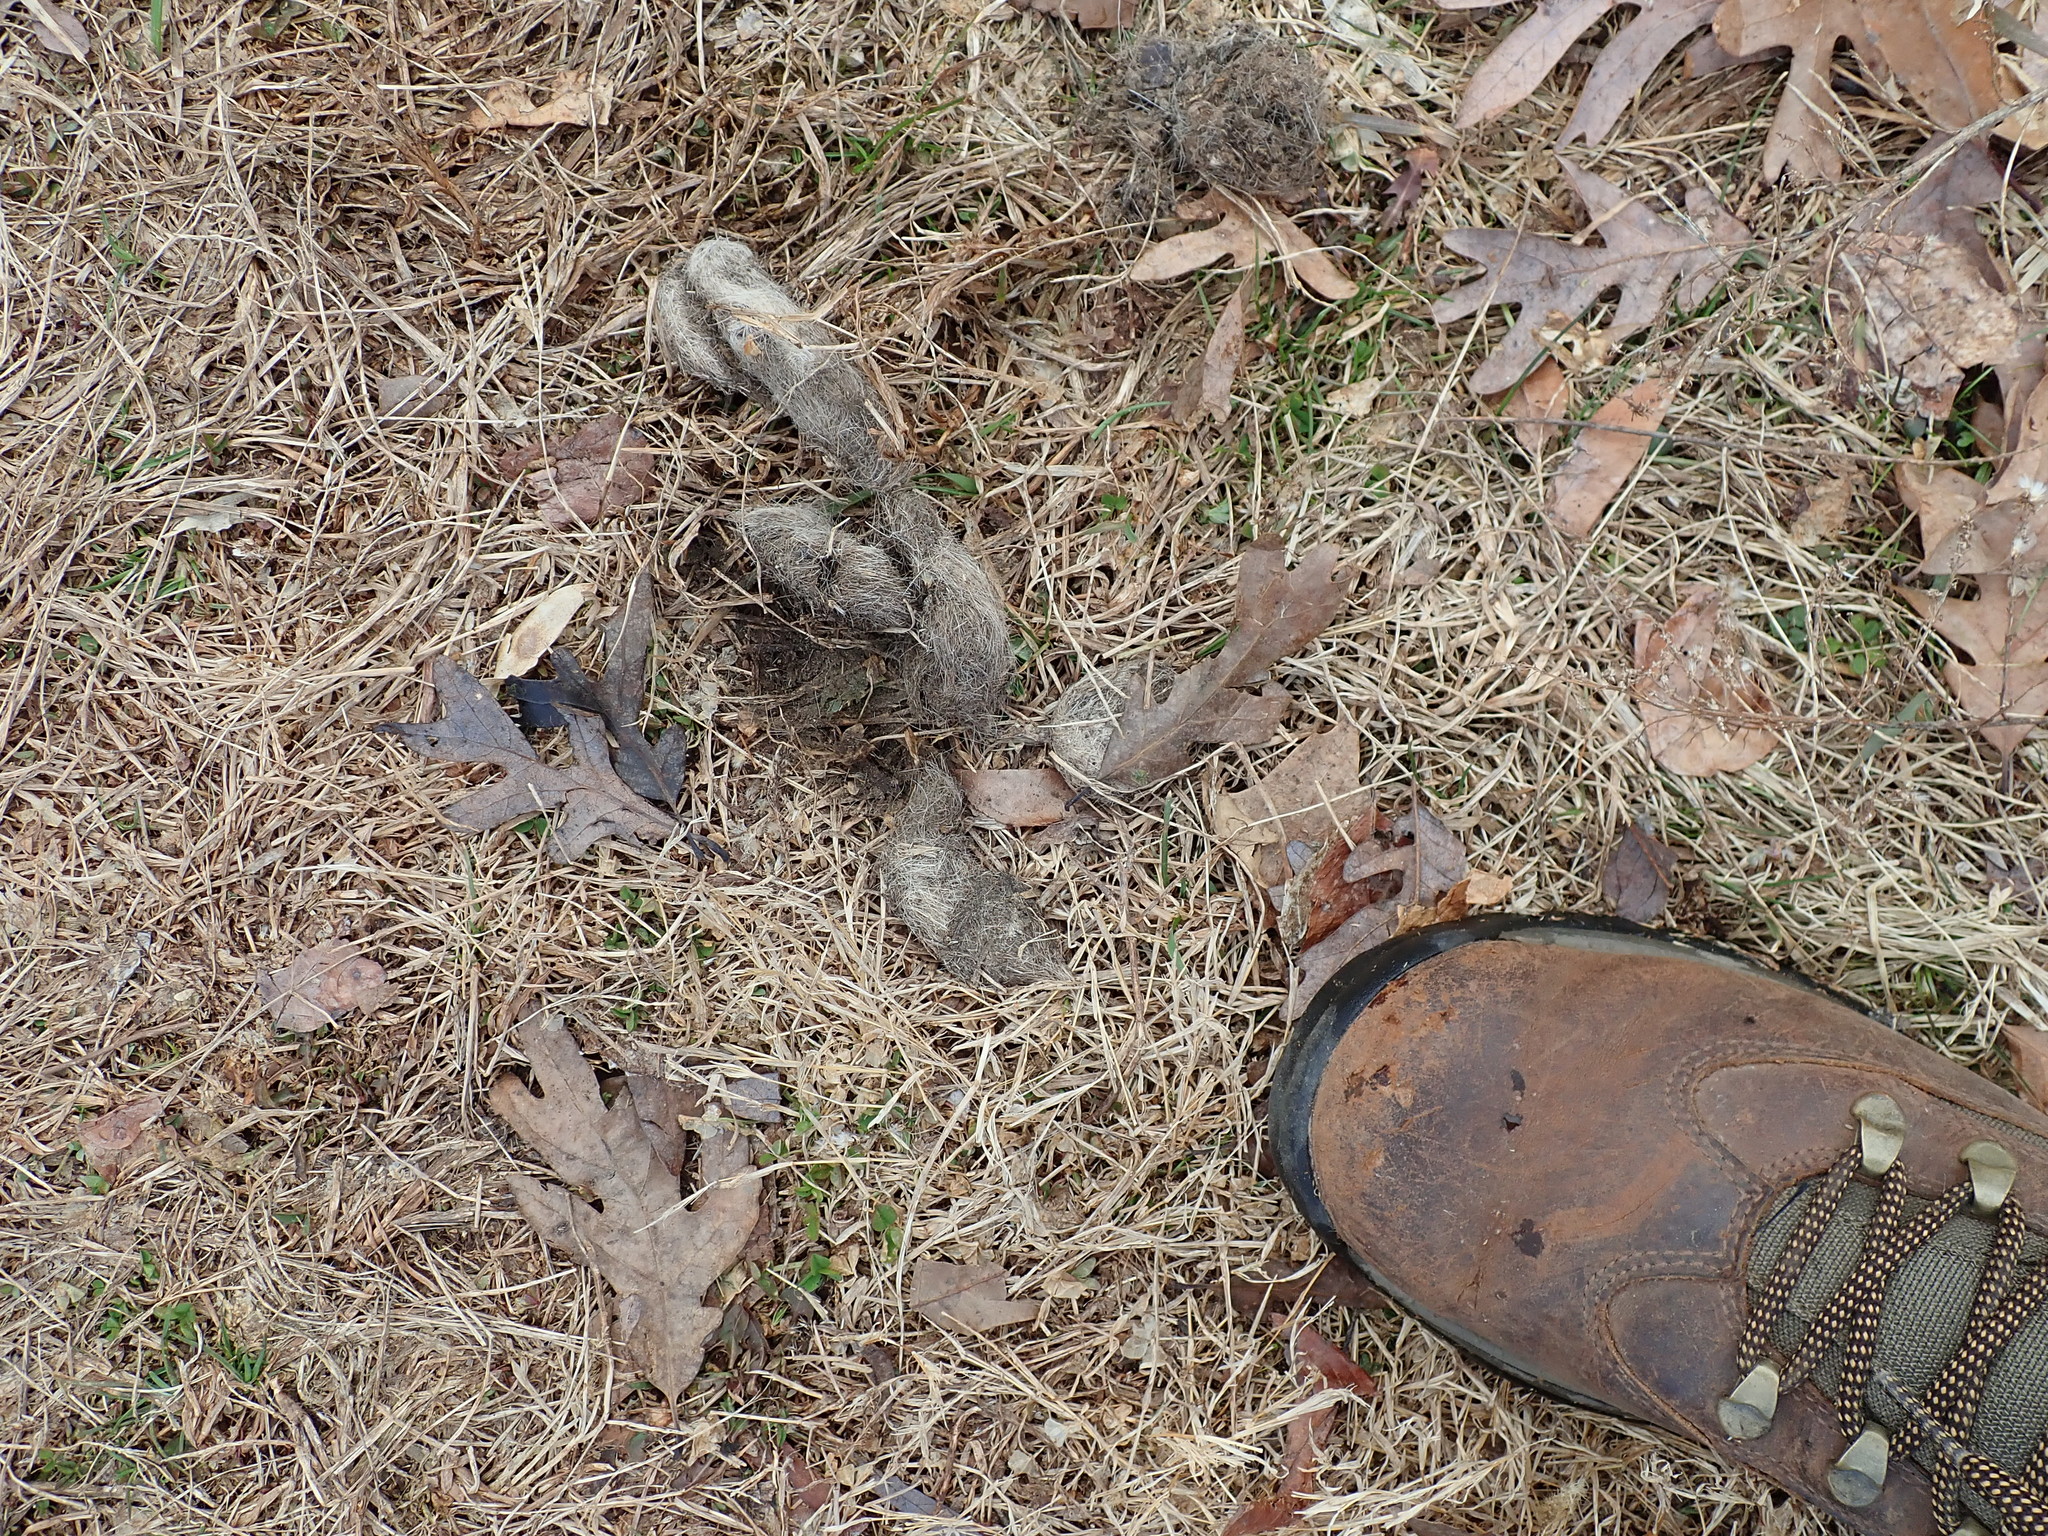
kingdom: Animalia
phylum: Chordata
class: Mammalia
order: Carnivora
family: Canidae
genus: Canis
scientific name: Canis latrans
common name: Coyote
